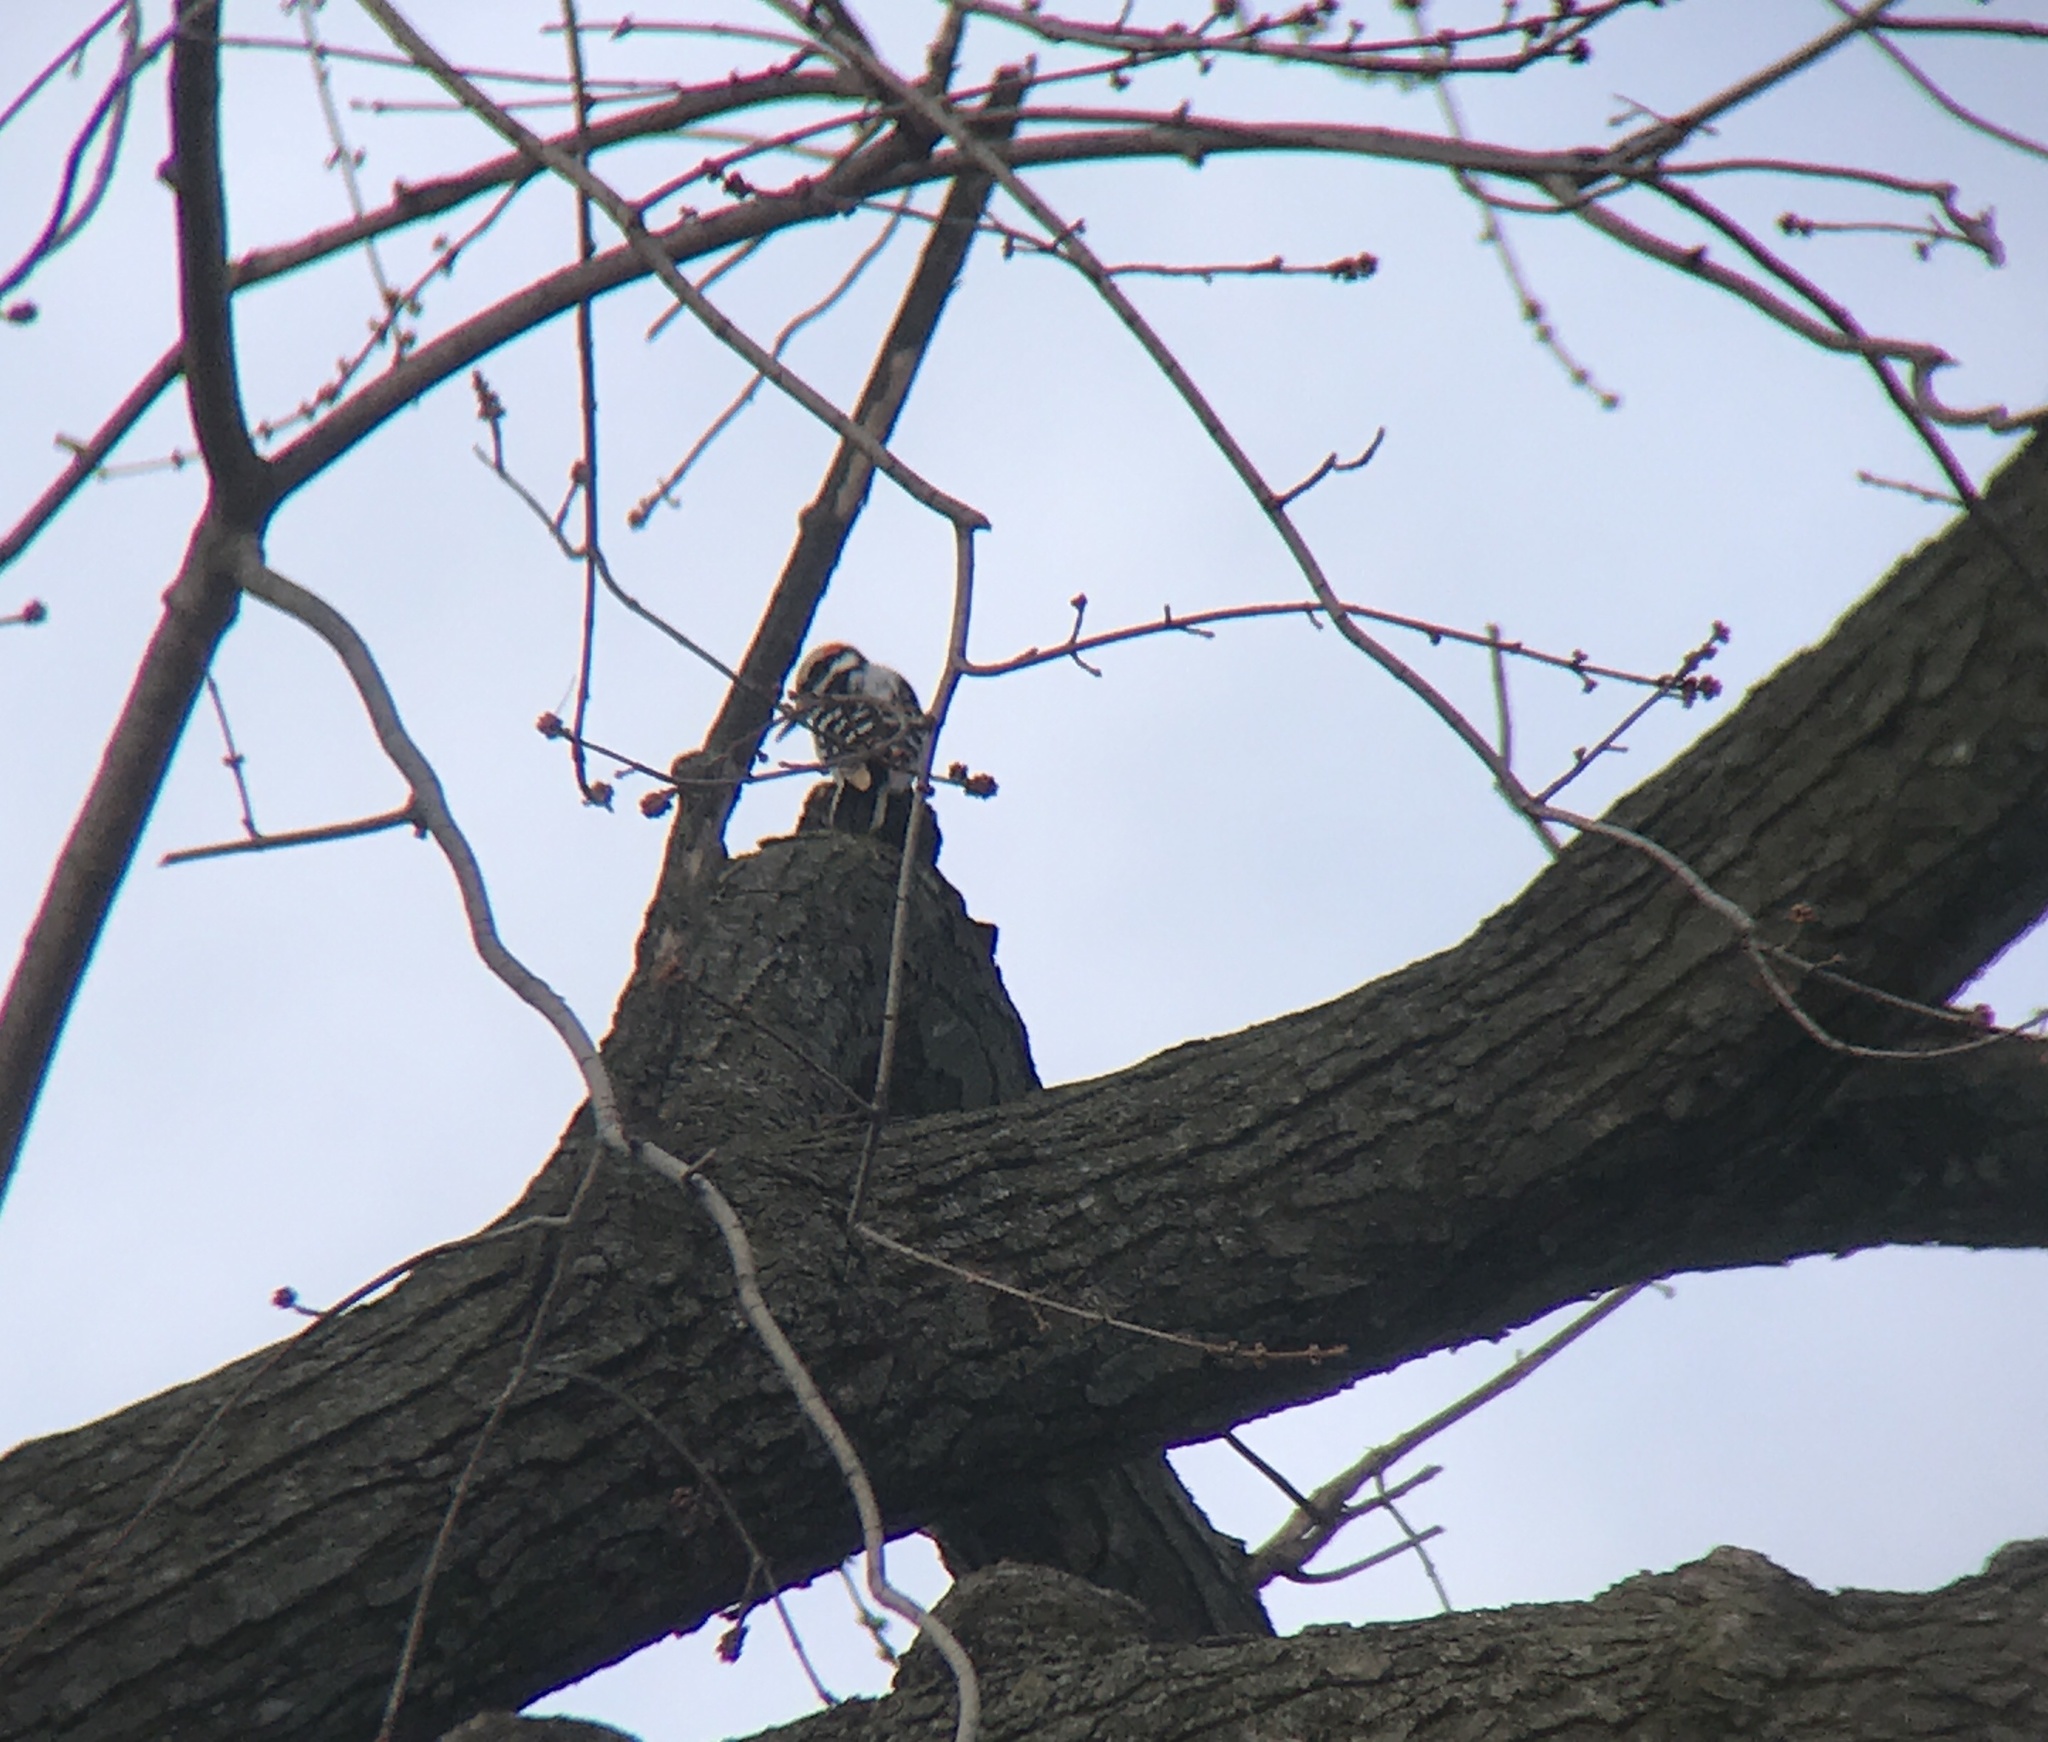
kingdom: Animalia
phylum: Chordata
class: Aves
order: Piciformes
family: Picidae
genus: Leuconotopicus
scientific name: Leuconotopicus villosus
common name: Hairy woodpecker
